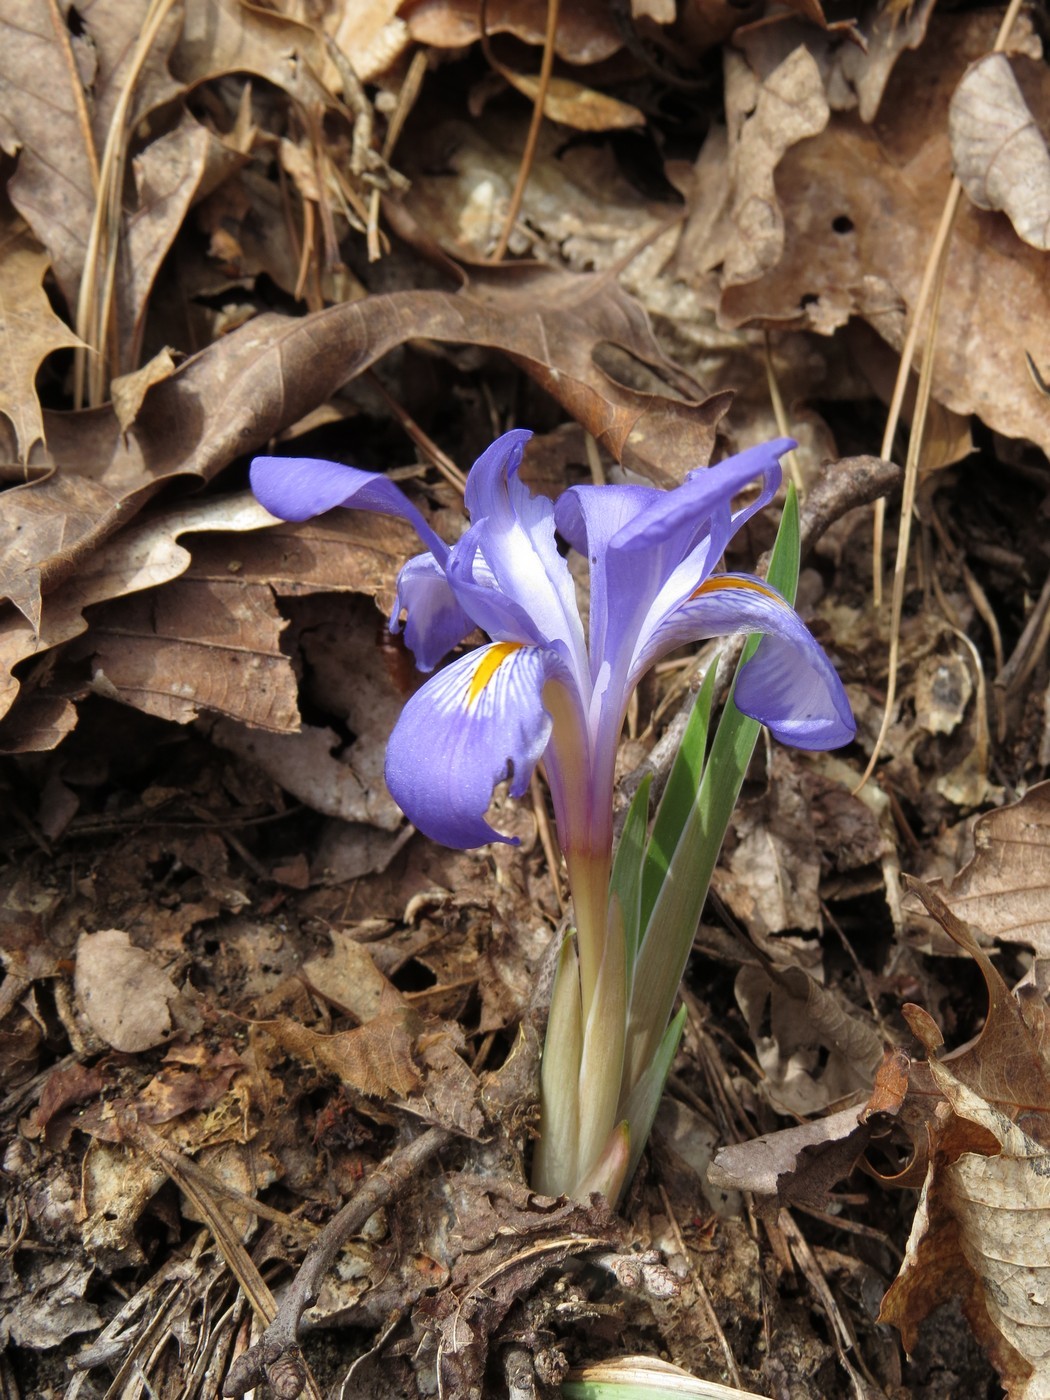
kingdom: Plantae
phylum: Tracheophyta
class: Liliopsida
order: Asparagales
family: Iridaceae
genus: Iris
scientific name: Iris verna
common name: Dwarf iris
